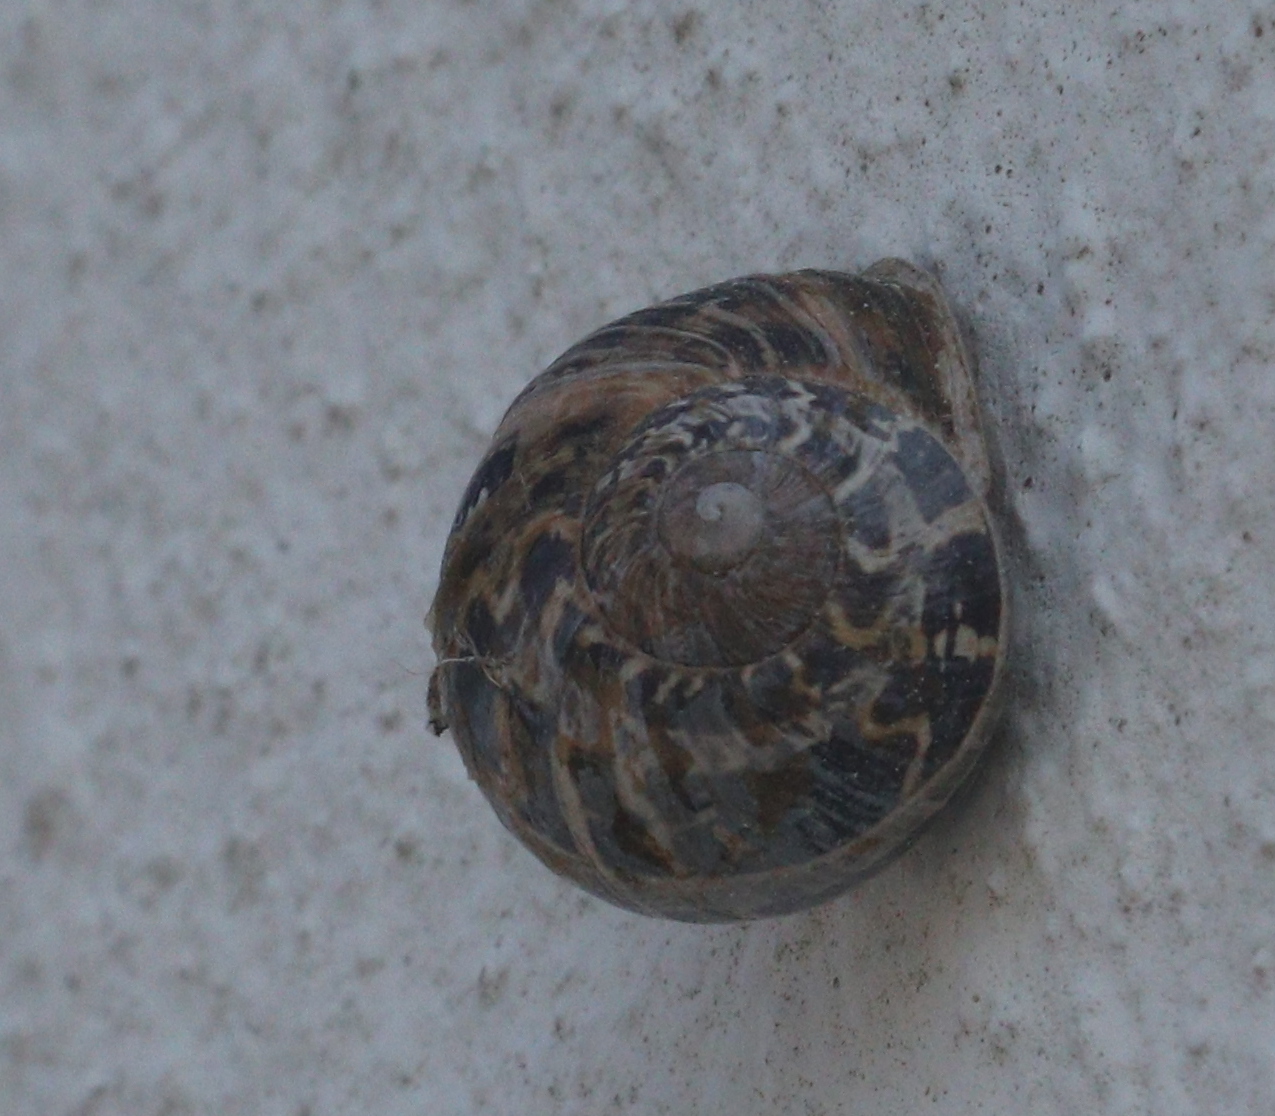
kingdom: Animalia
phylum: Mollusca
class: Gastropoda
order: Stylommatophora
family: Helicidae
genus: Cornu
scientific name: Cornu aspersum
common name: Brown garden snail
